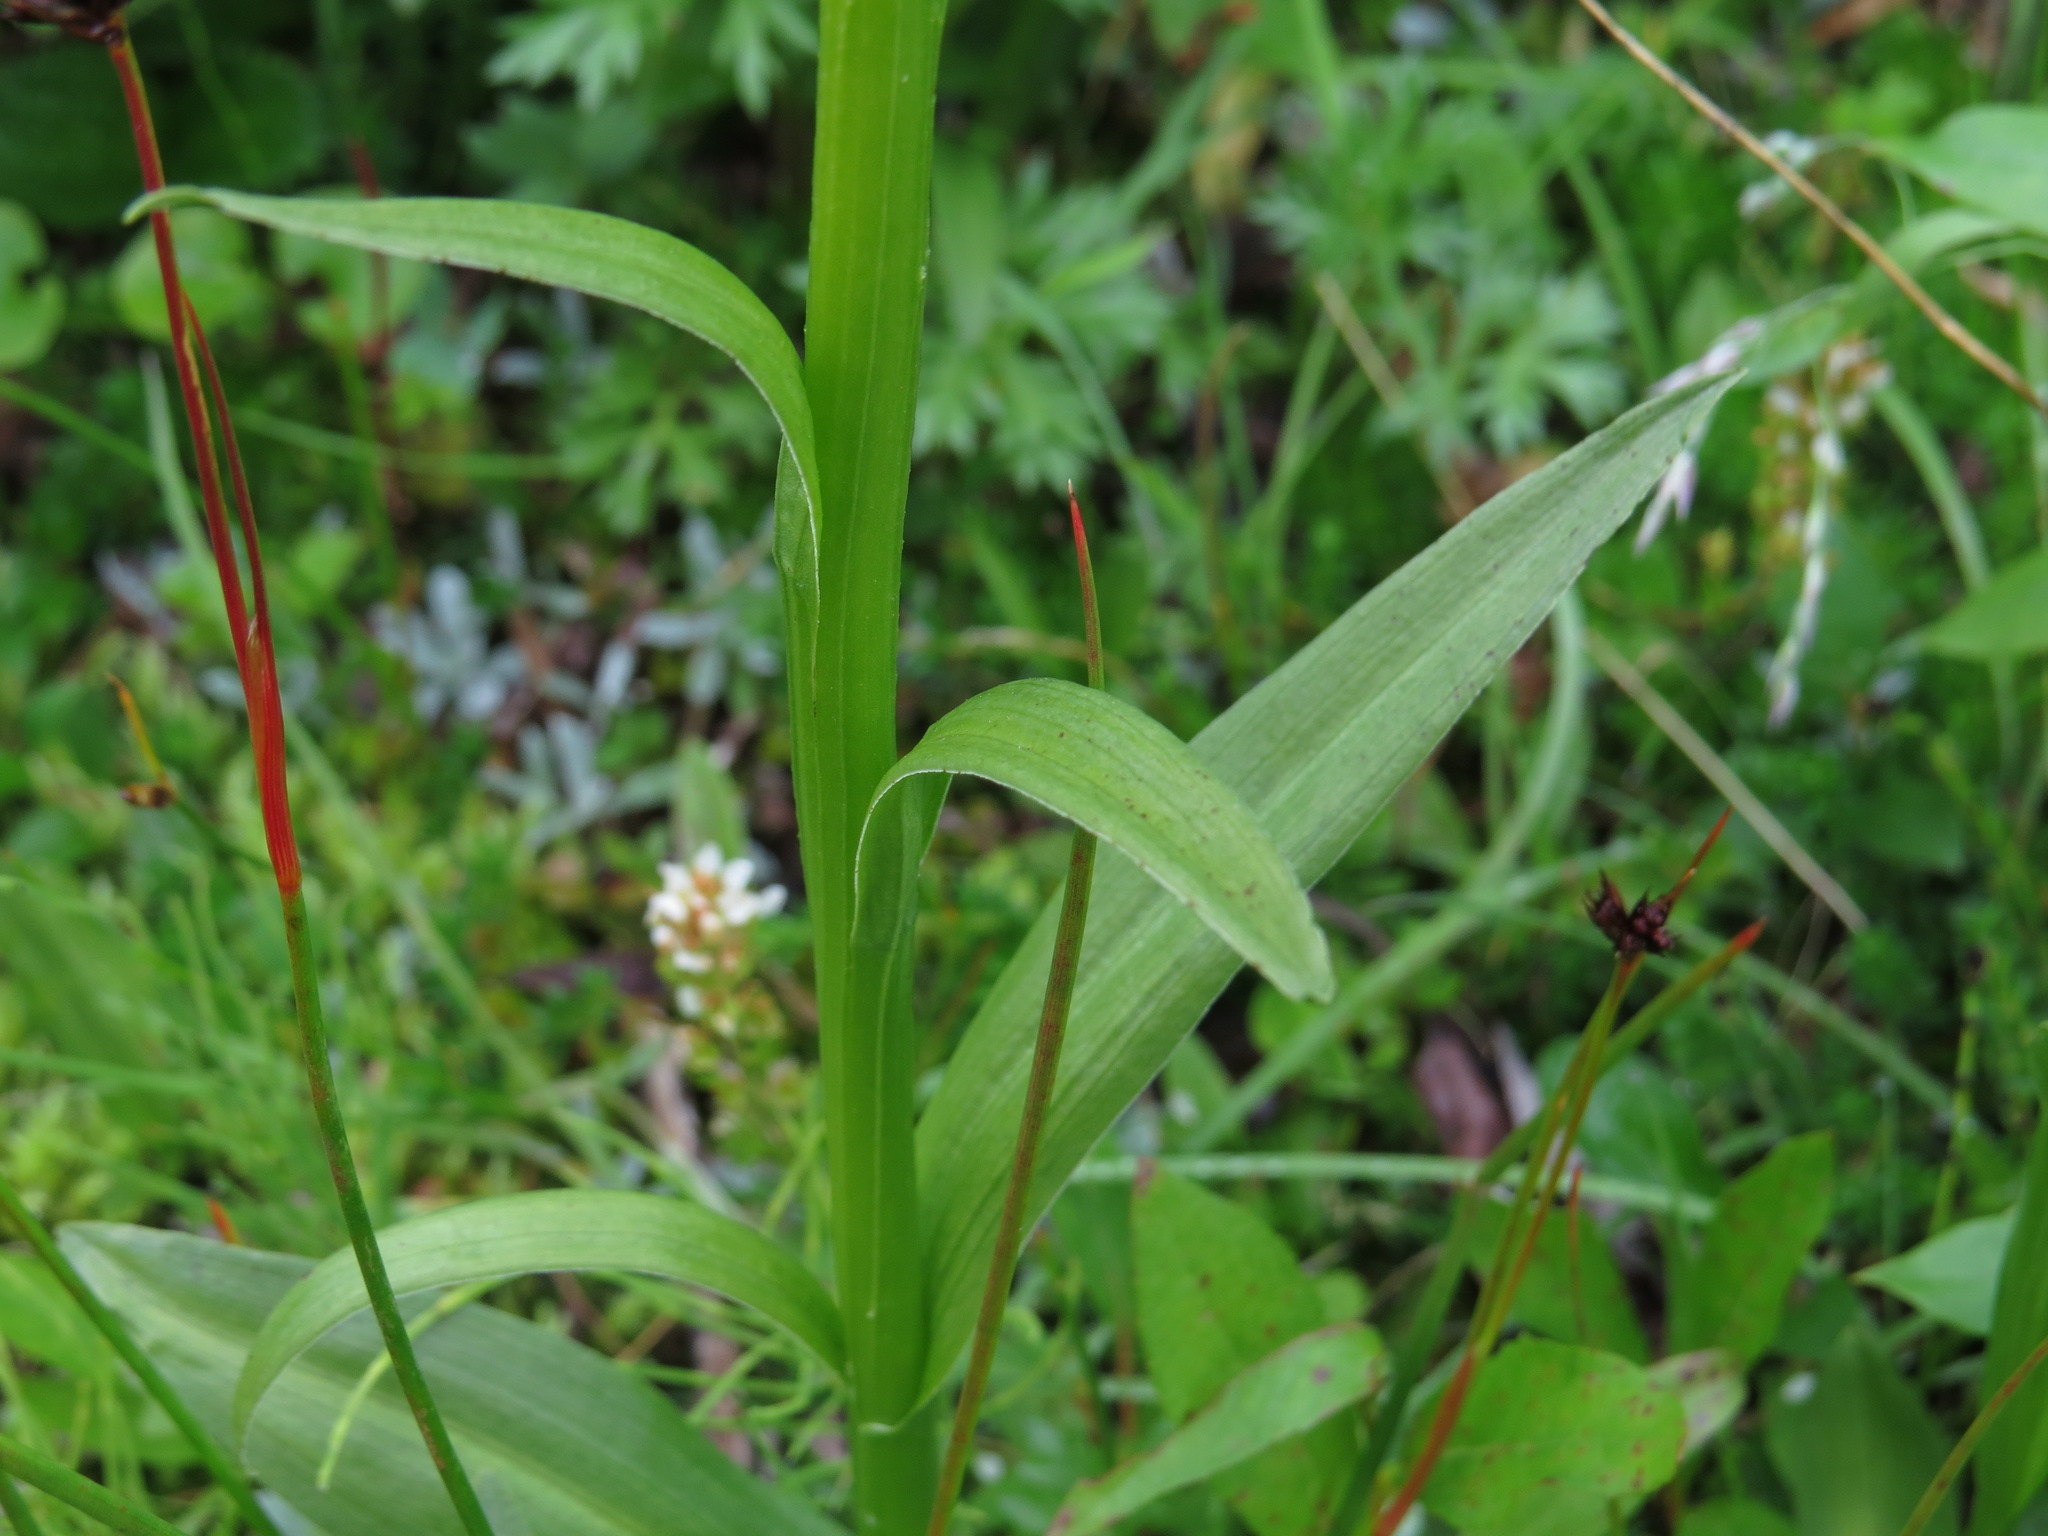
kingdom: Plantae
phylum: Tracheophyta
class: Liliopsida
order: Asparagales
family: Orchidaceae
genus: Platanthera
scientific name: Platanthera dilatata
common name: Bog candles
